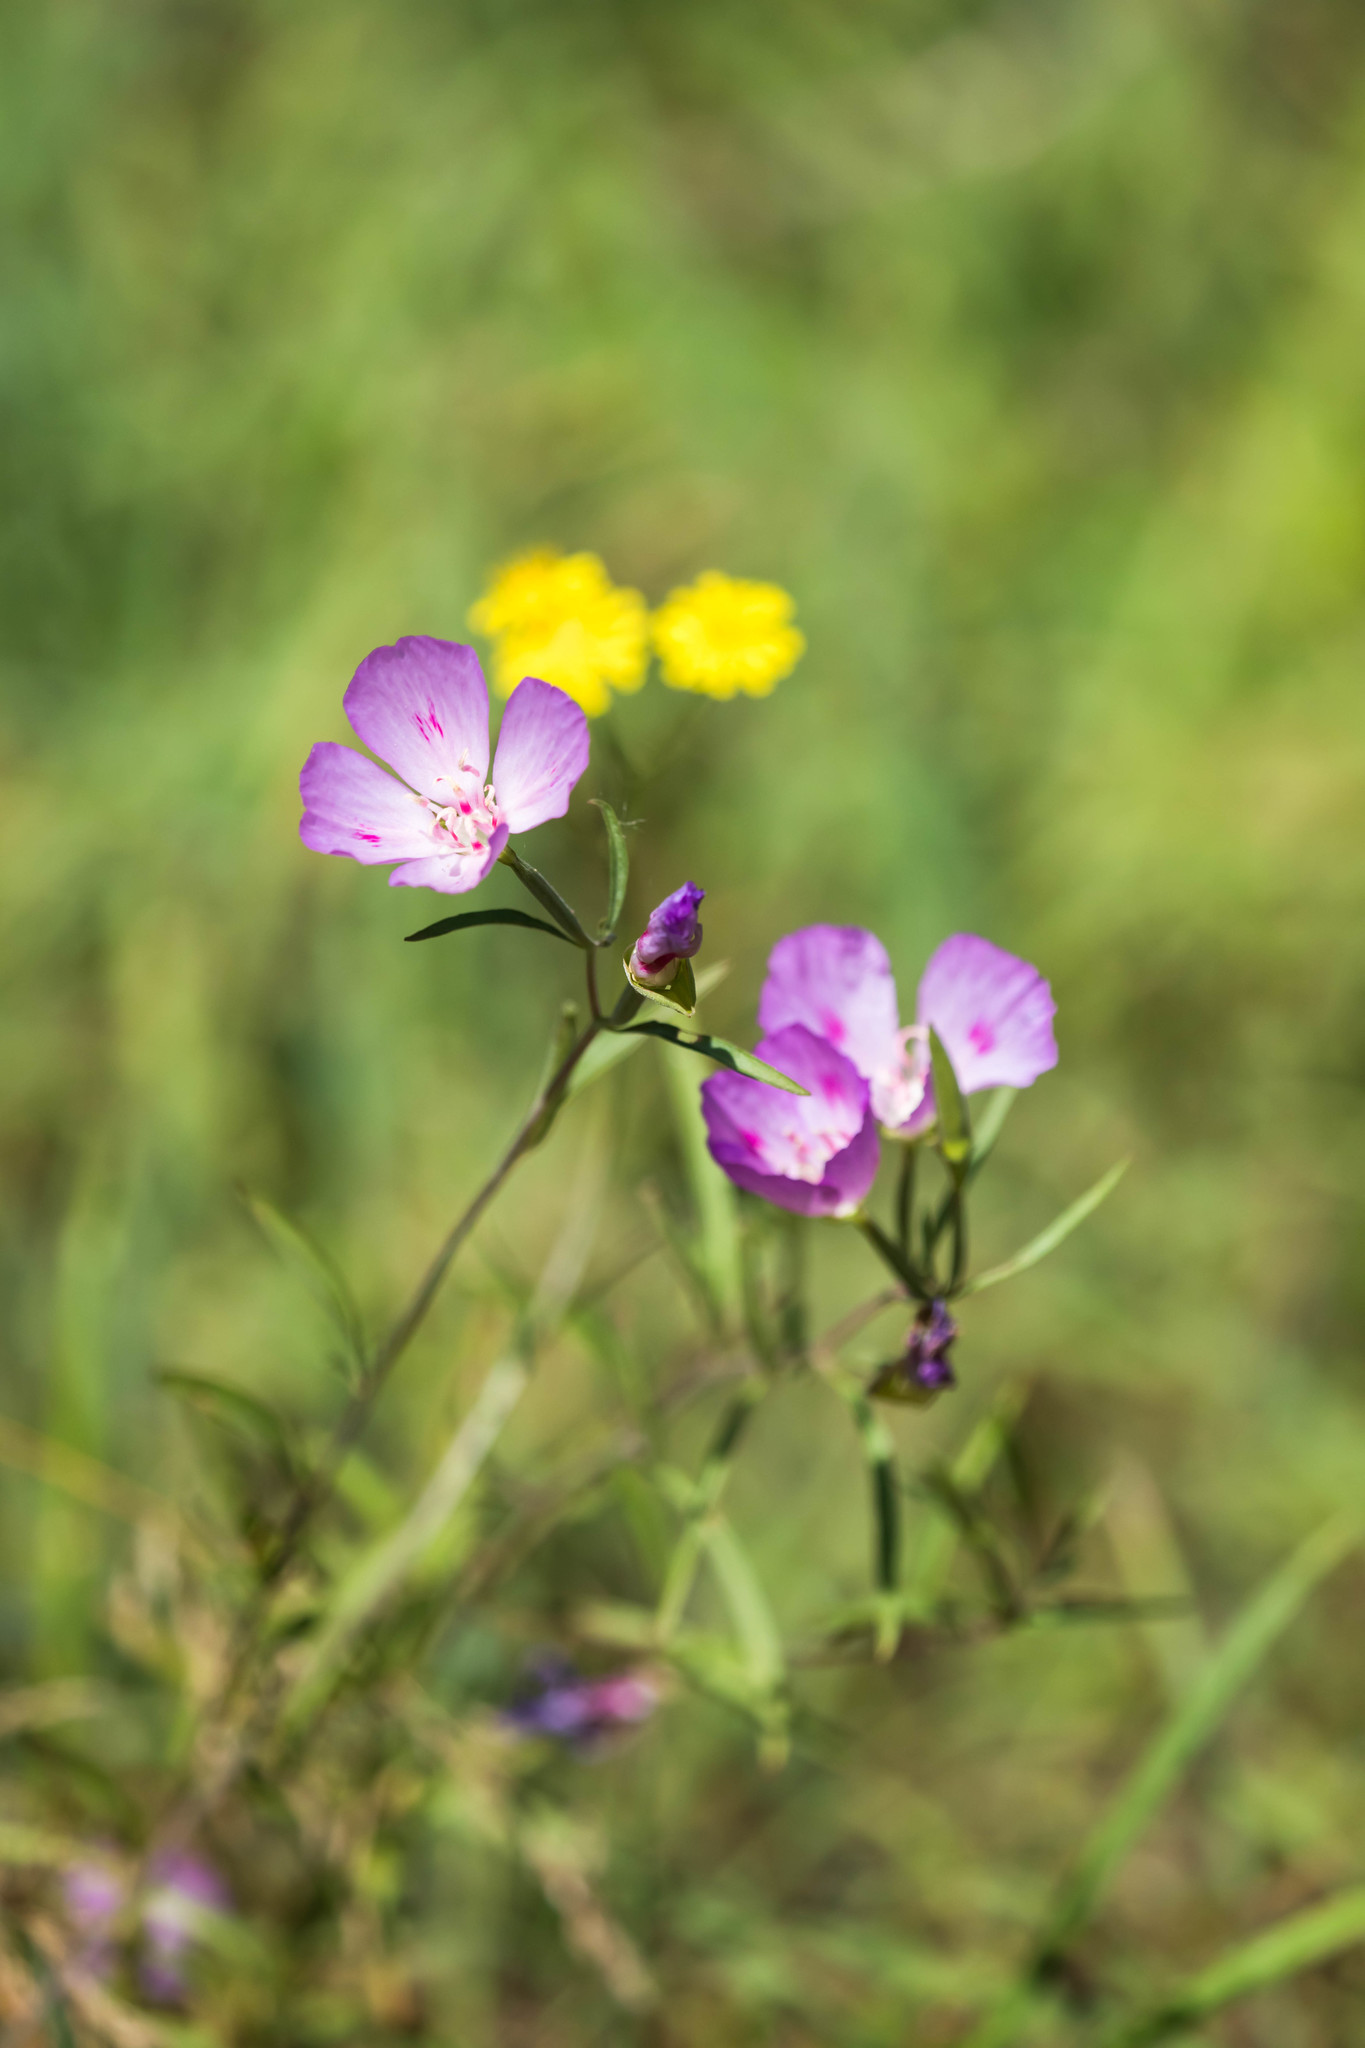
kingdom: Plantae
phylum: Tracheophyta
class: Magnoliopsida
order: Myrtales
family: Onagraceae
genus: Clarkia
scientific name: Clarkia amoena
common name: Godetia
